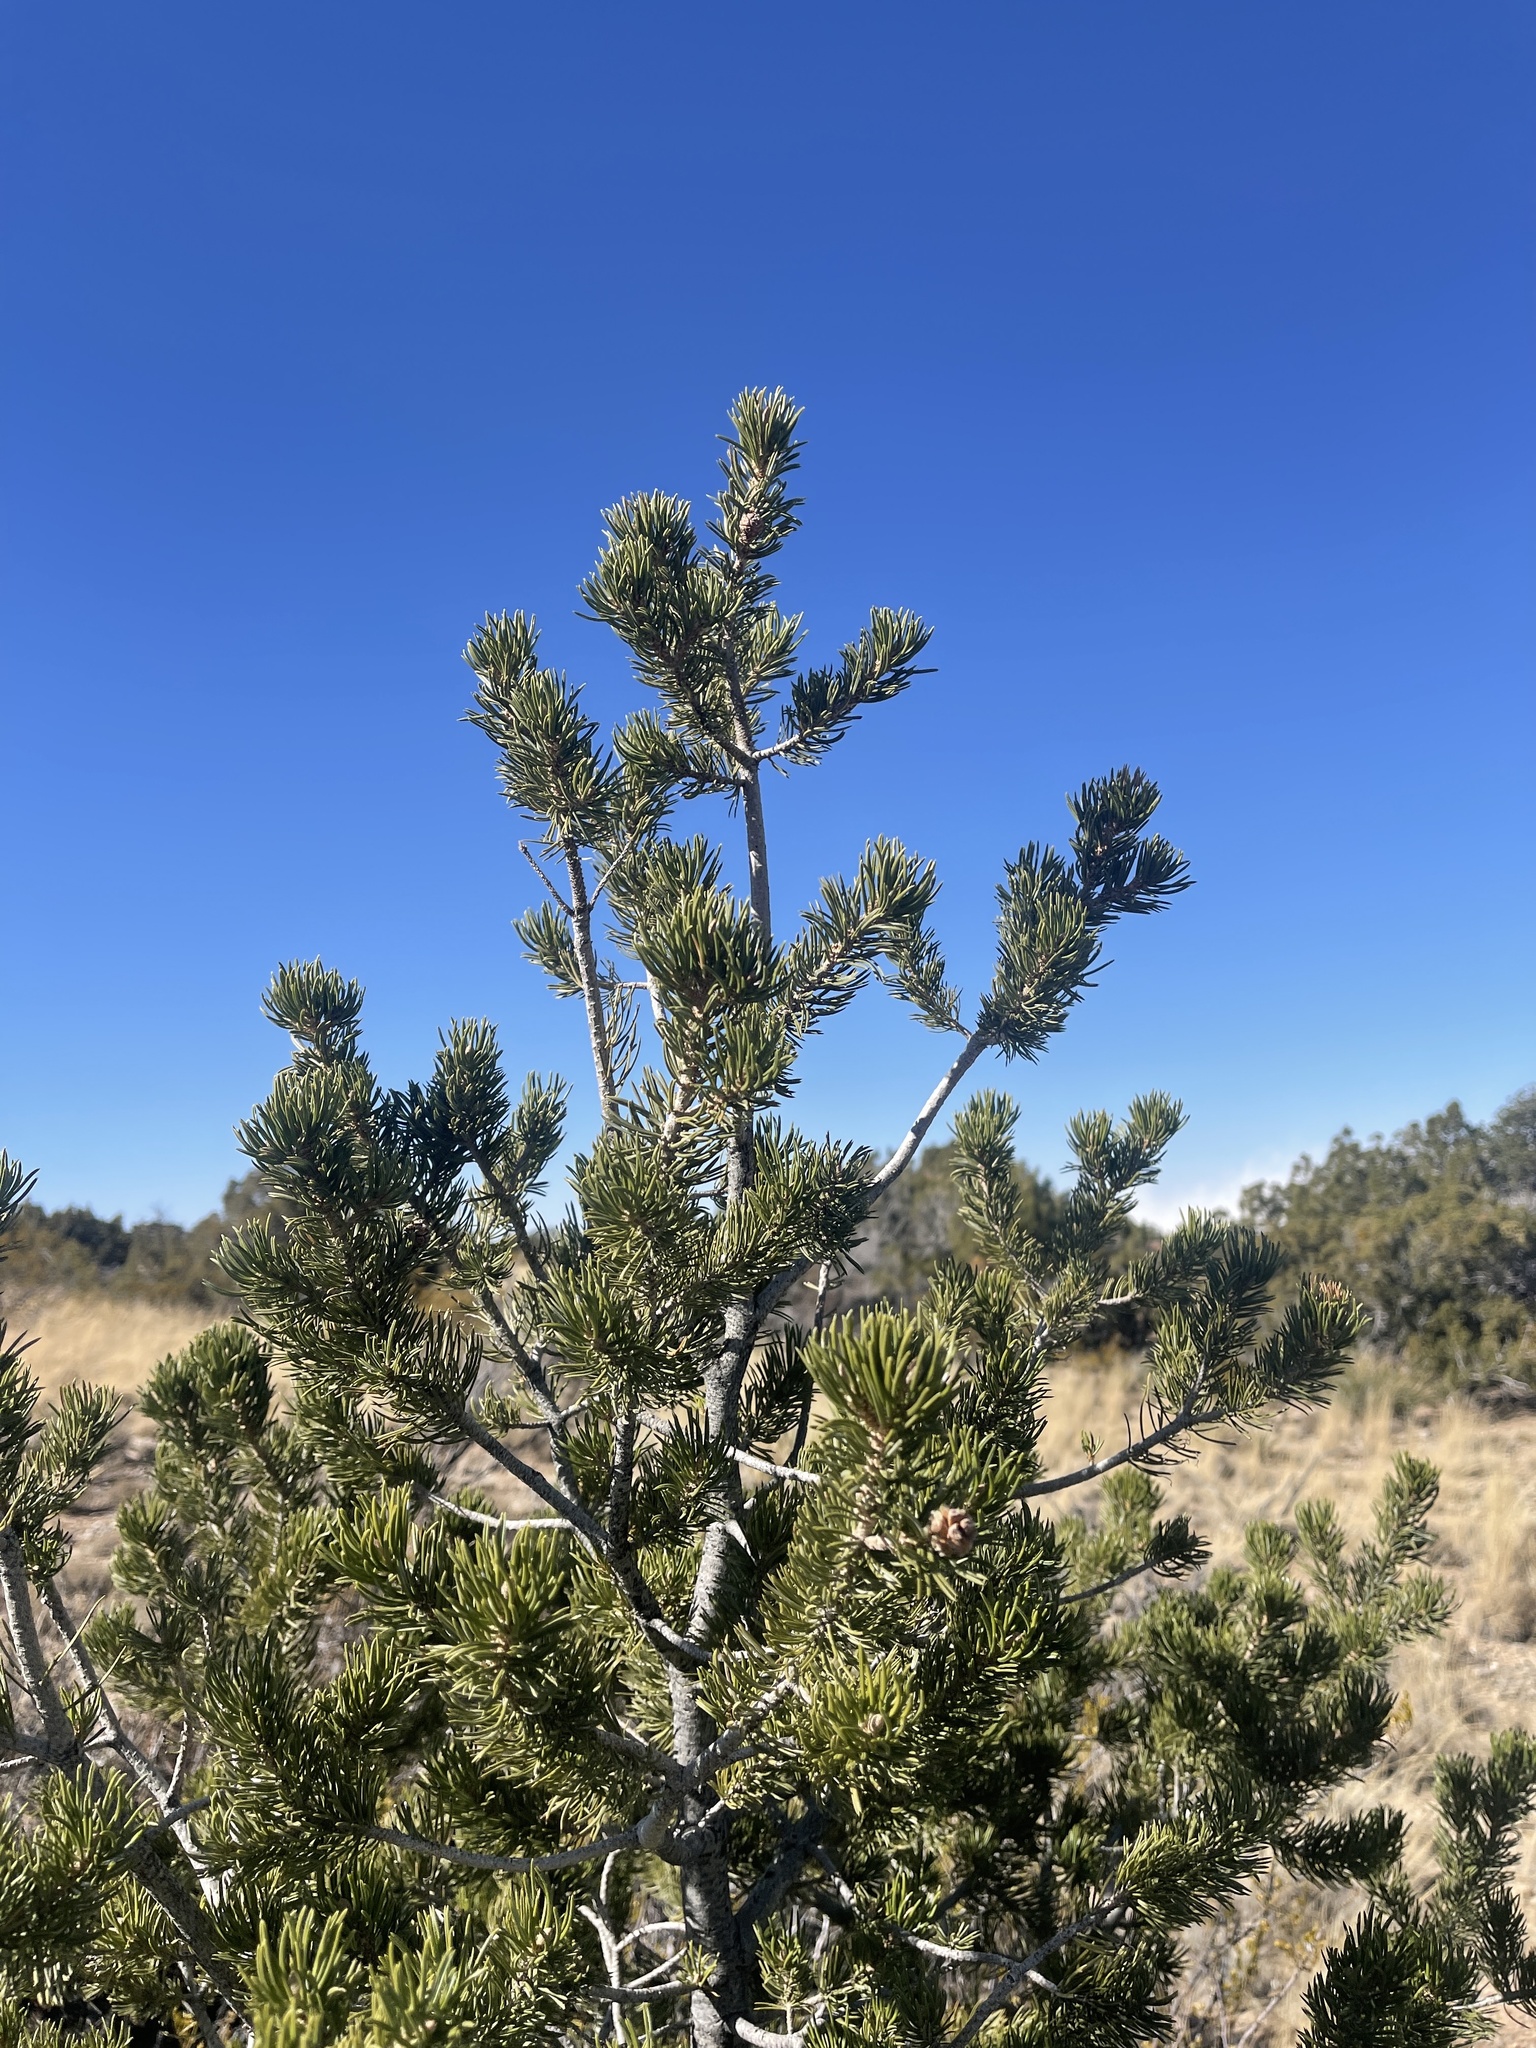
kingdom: Plantae
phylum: Tracheophyta
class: Pinopsida
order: Pinales
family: Pinaceae
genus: Pinus
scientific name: Pinus edulis
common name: Colorado pinyon
